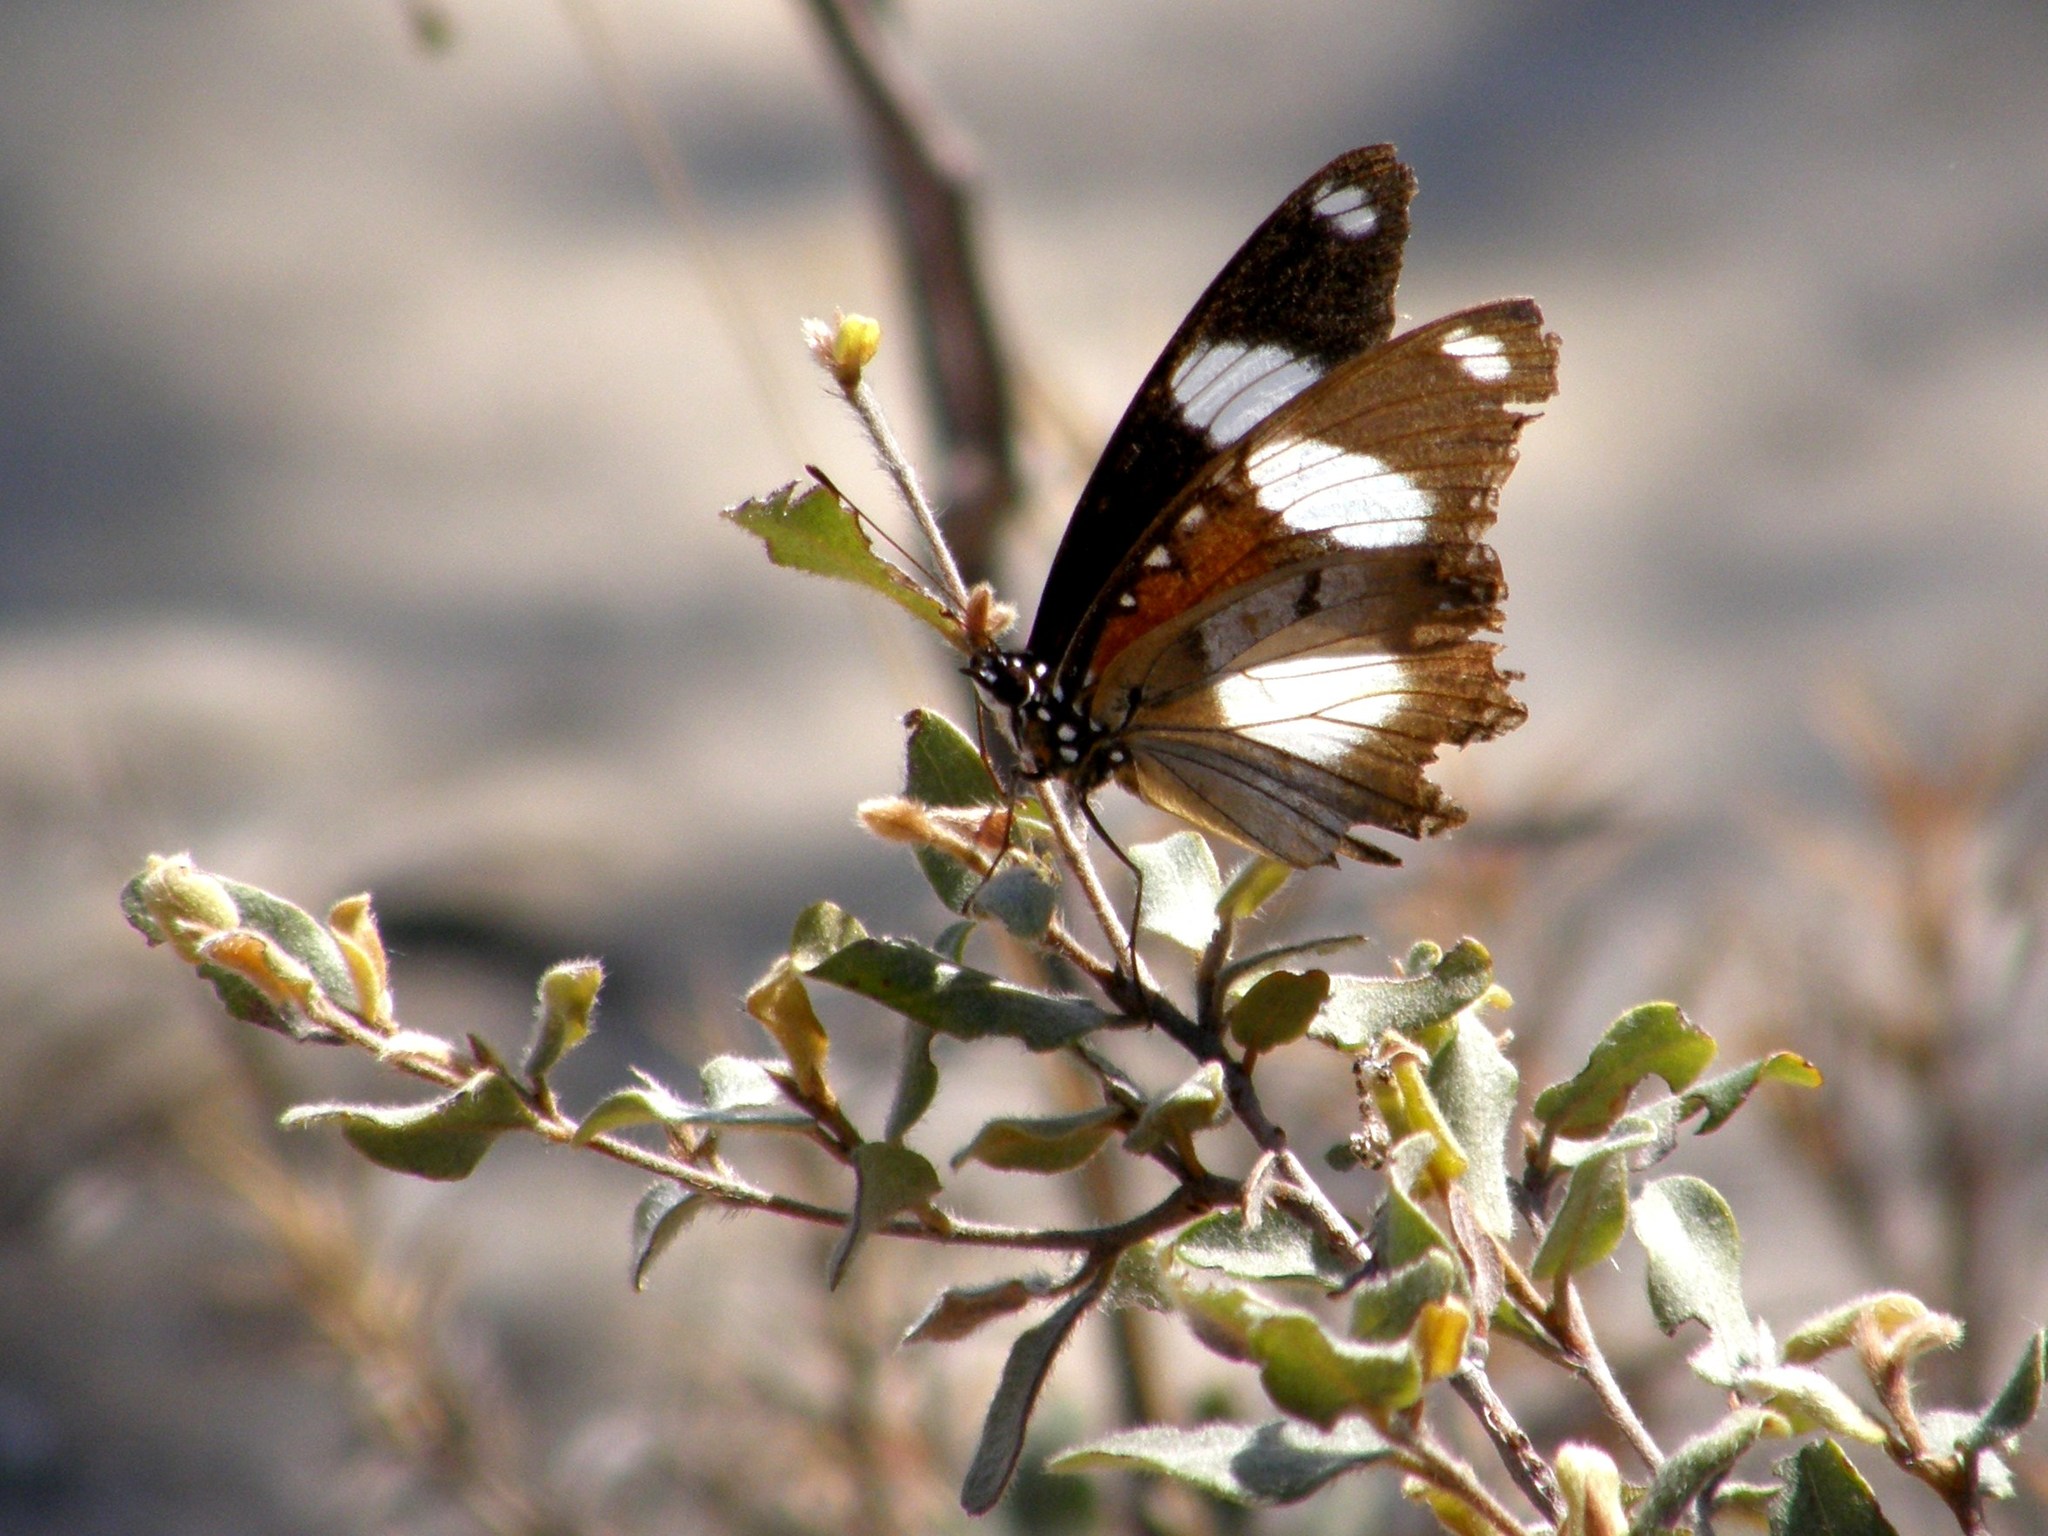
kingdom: Animalia
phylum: Arthropoda
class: Insecta
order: Lepidoptera
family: Nymphalidae
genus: Hypolimnas
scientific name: Hypolimnas misippus
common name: False plain tiger
